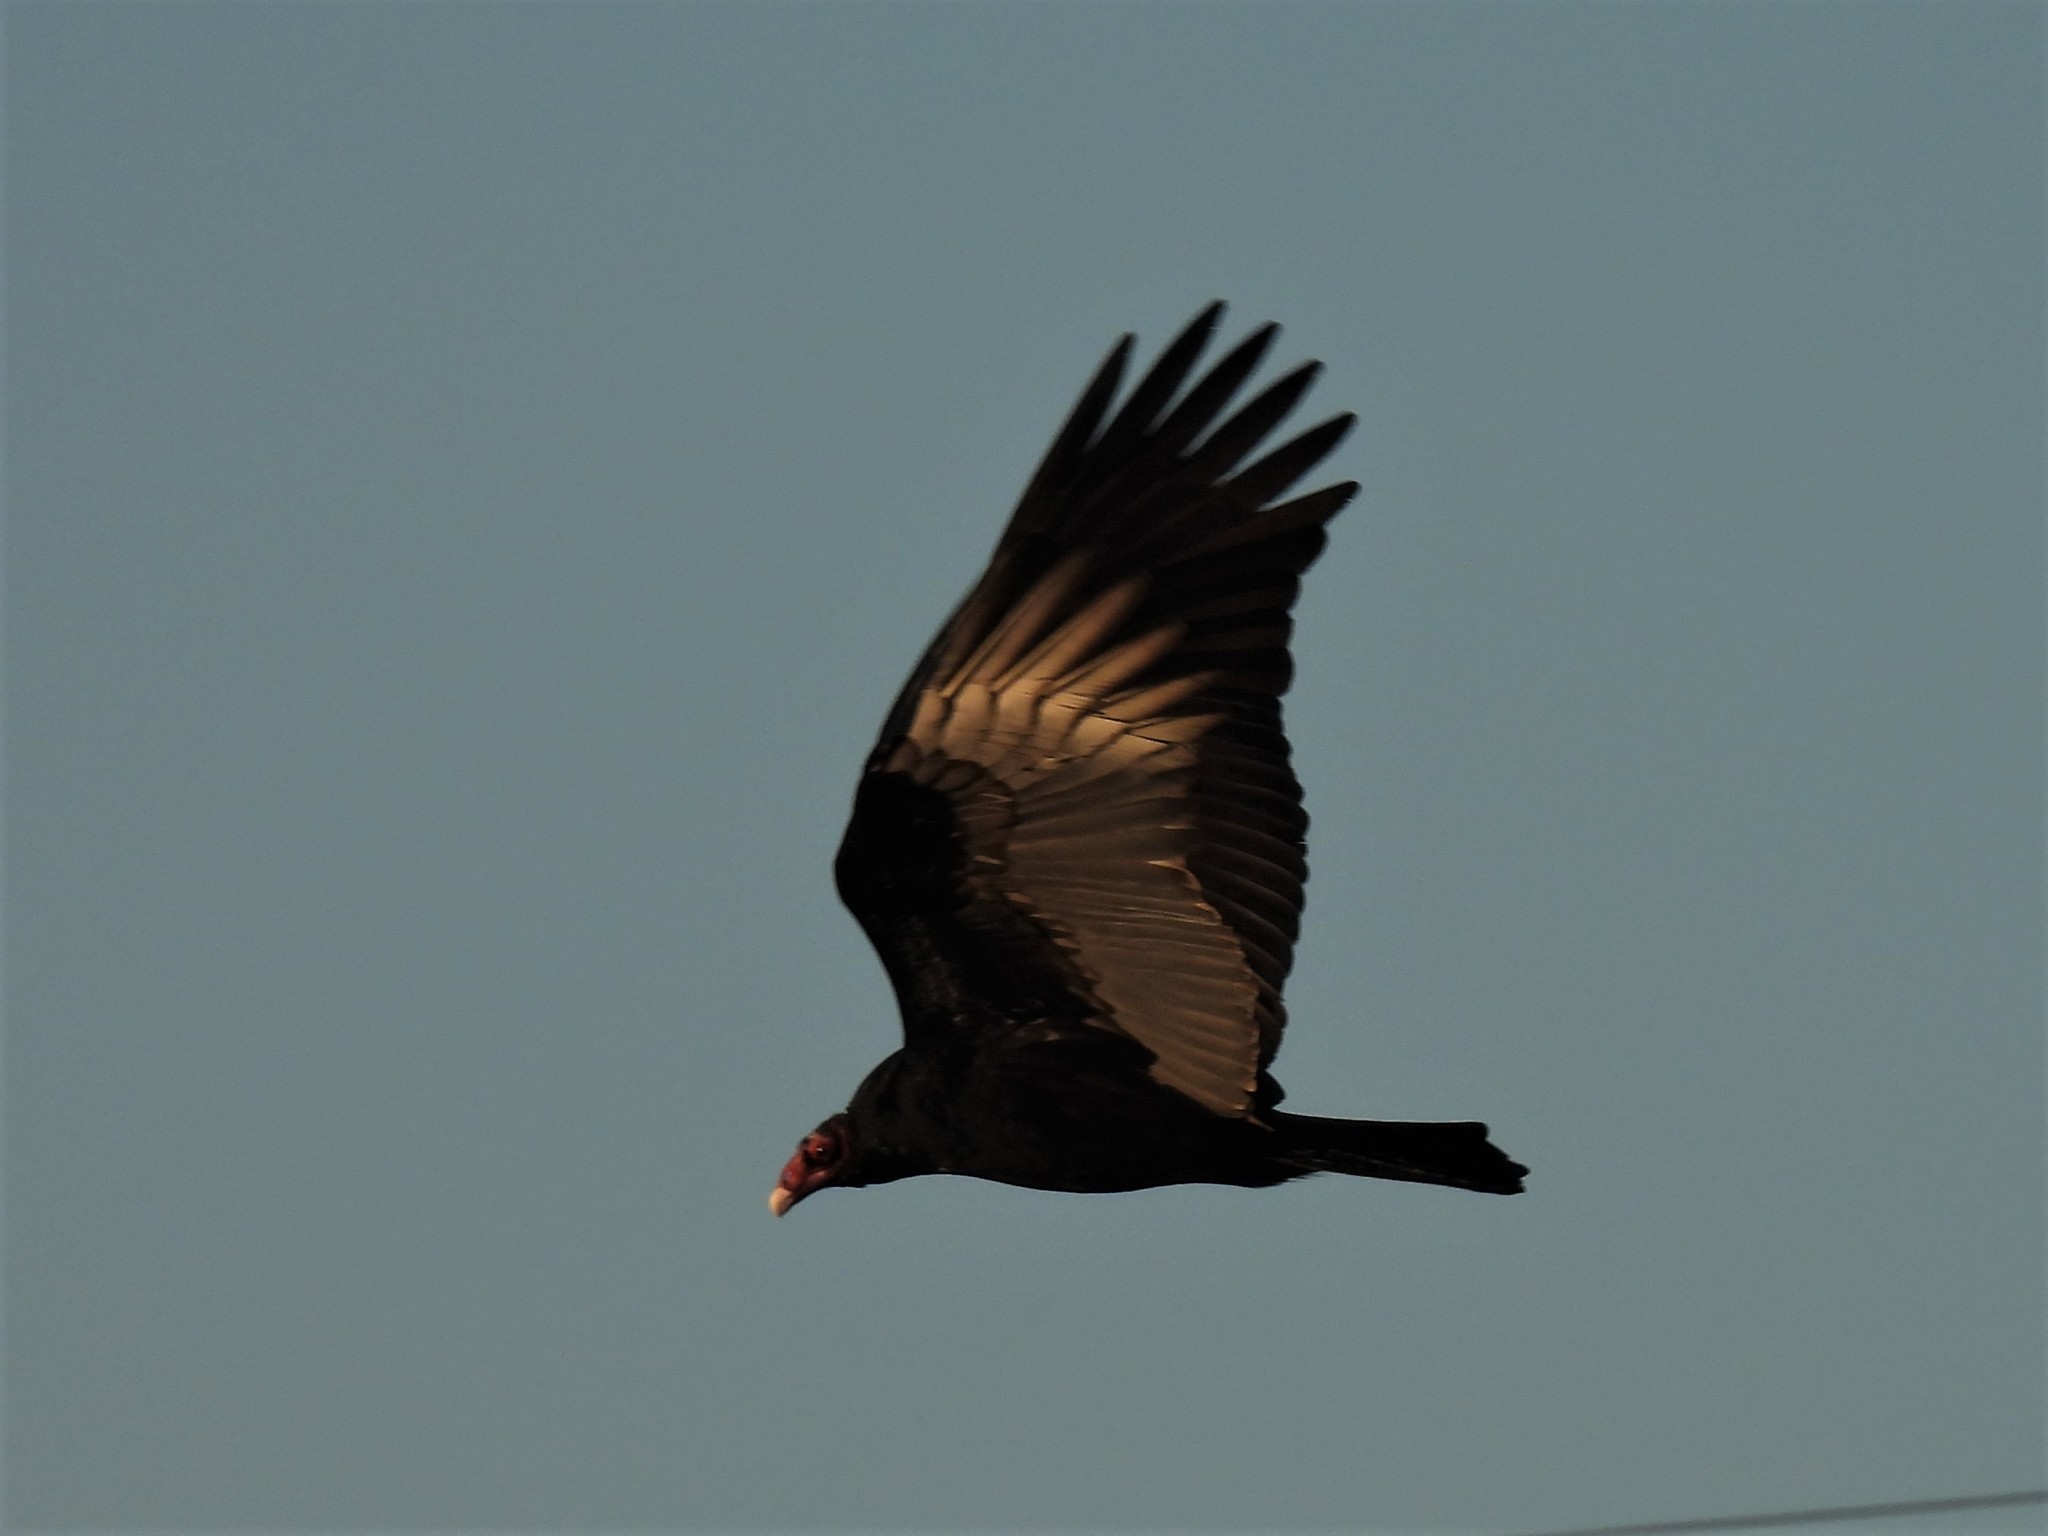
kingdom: Animalia
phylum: Chordata
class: Aves
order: Accipitriformes
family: Cathartidae
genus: Cathartes
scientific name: Cathartes aura
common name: Turkey vulture
